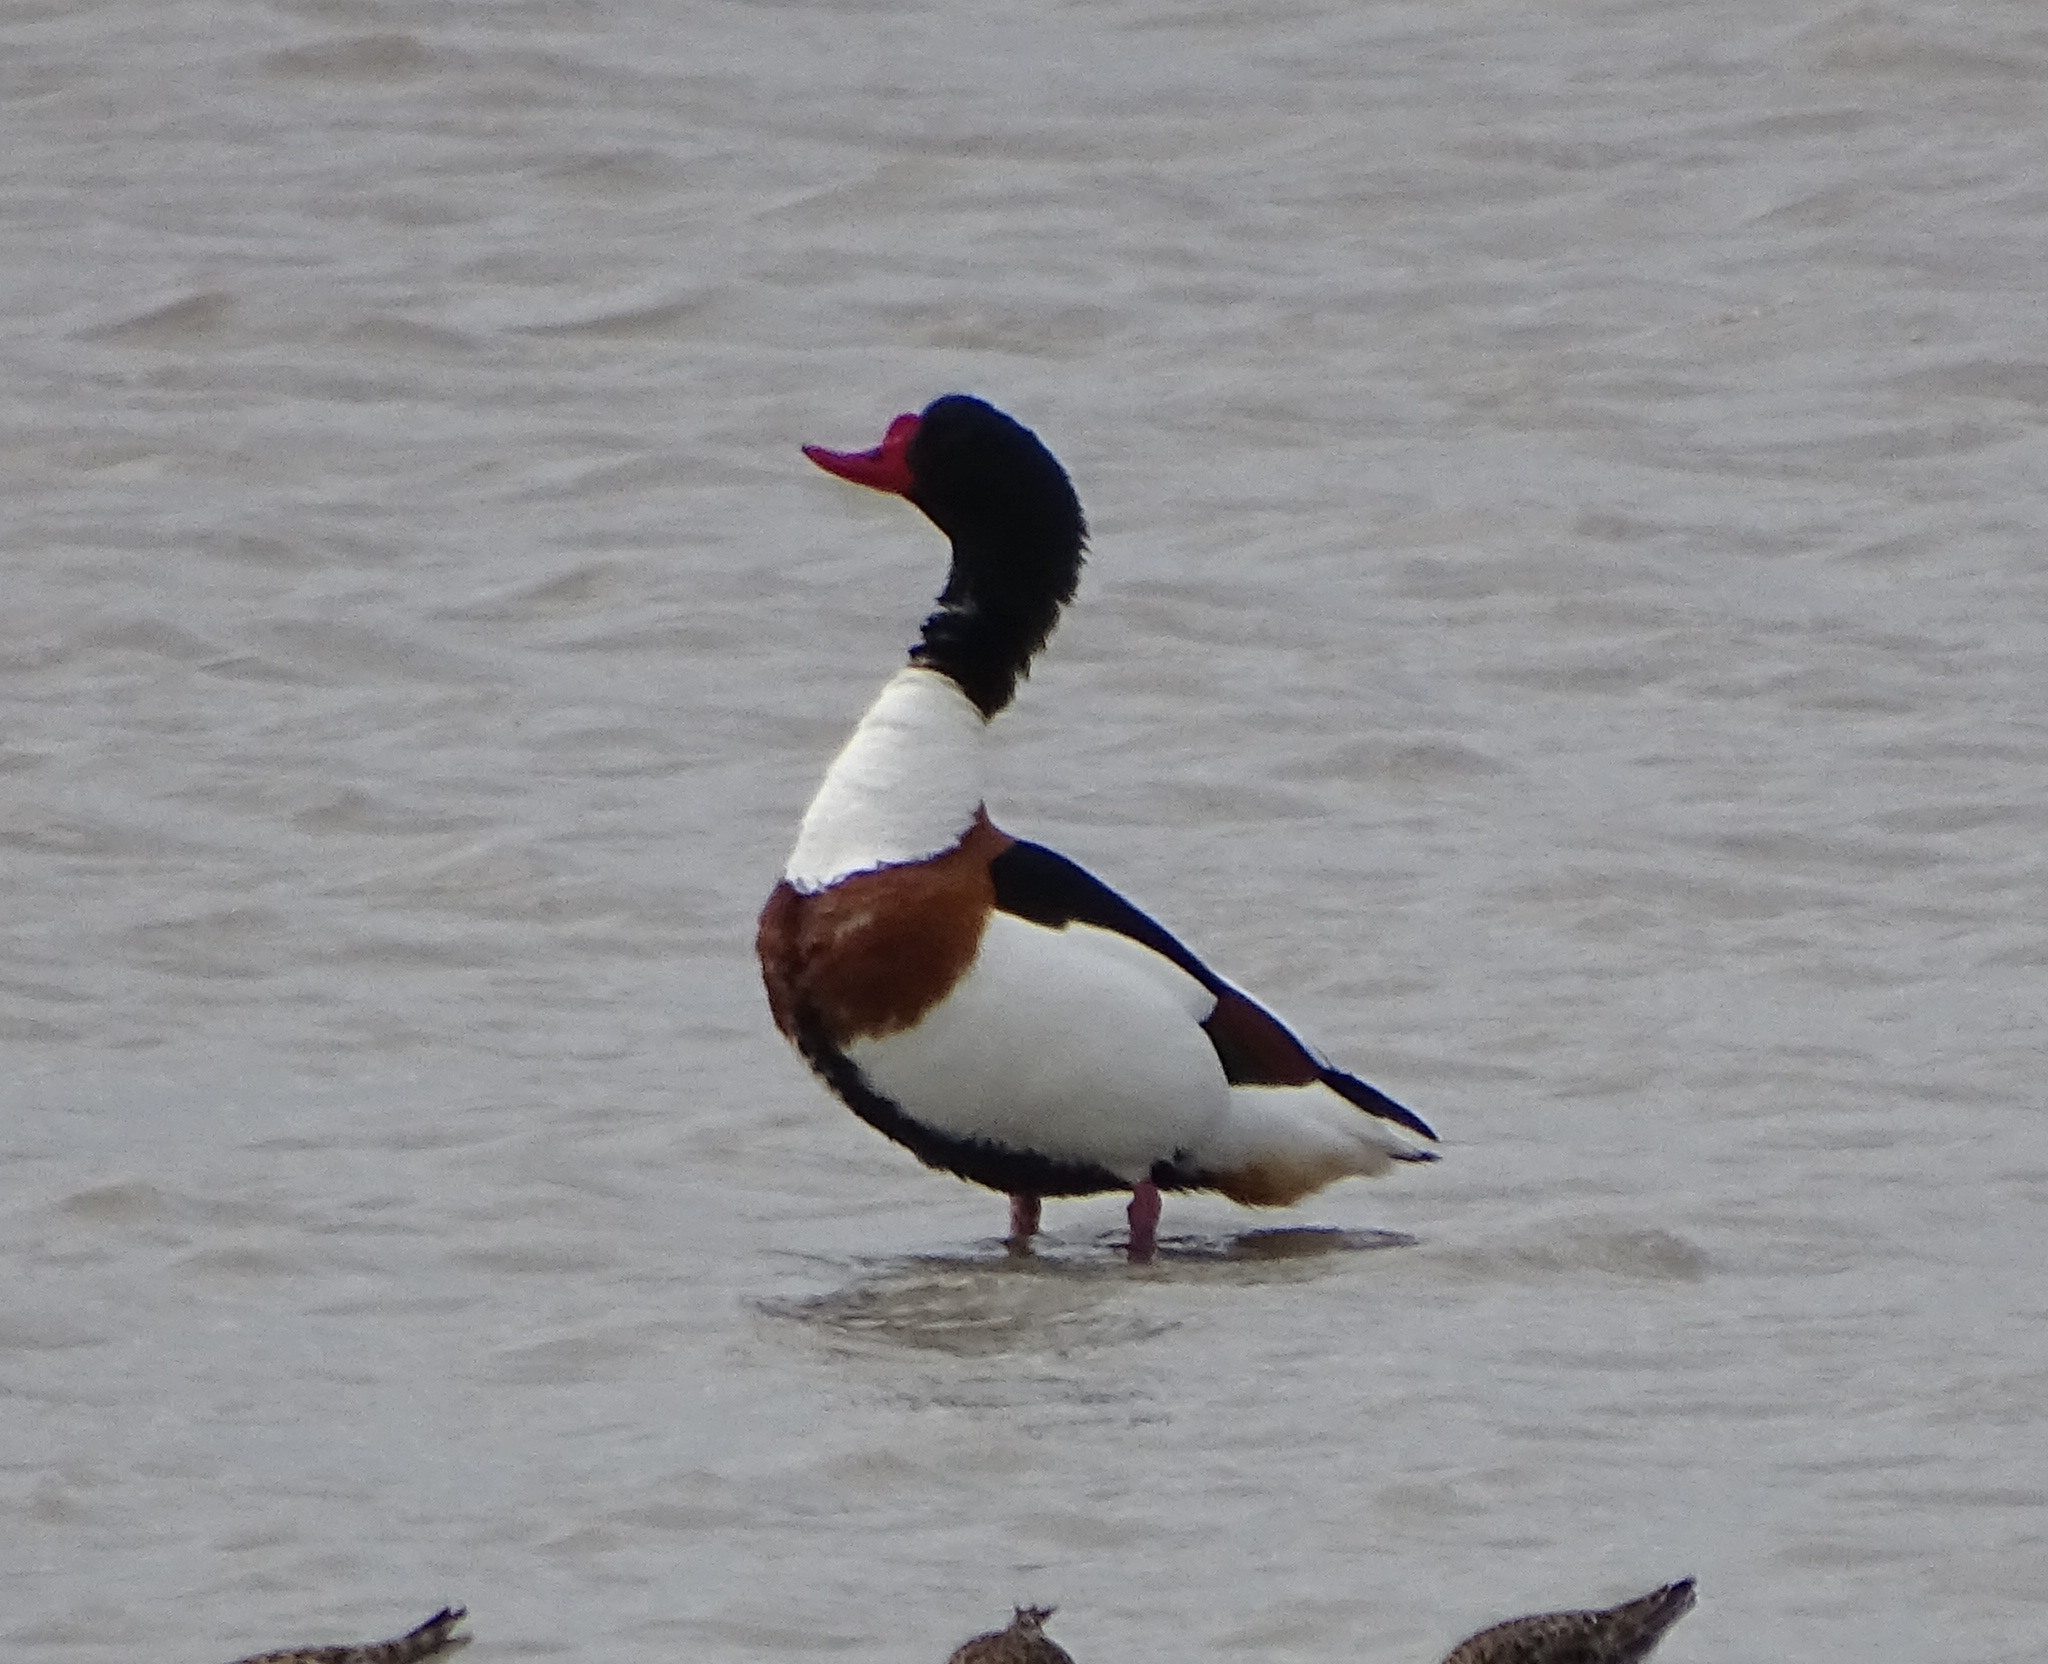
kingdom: Animalia
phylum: Chordata
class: Aves
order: Anseriformes
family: Anatidae
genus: Tadorna
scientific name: Tadorna tadorna
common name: Common shelduck
